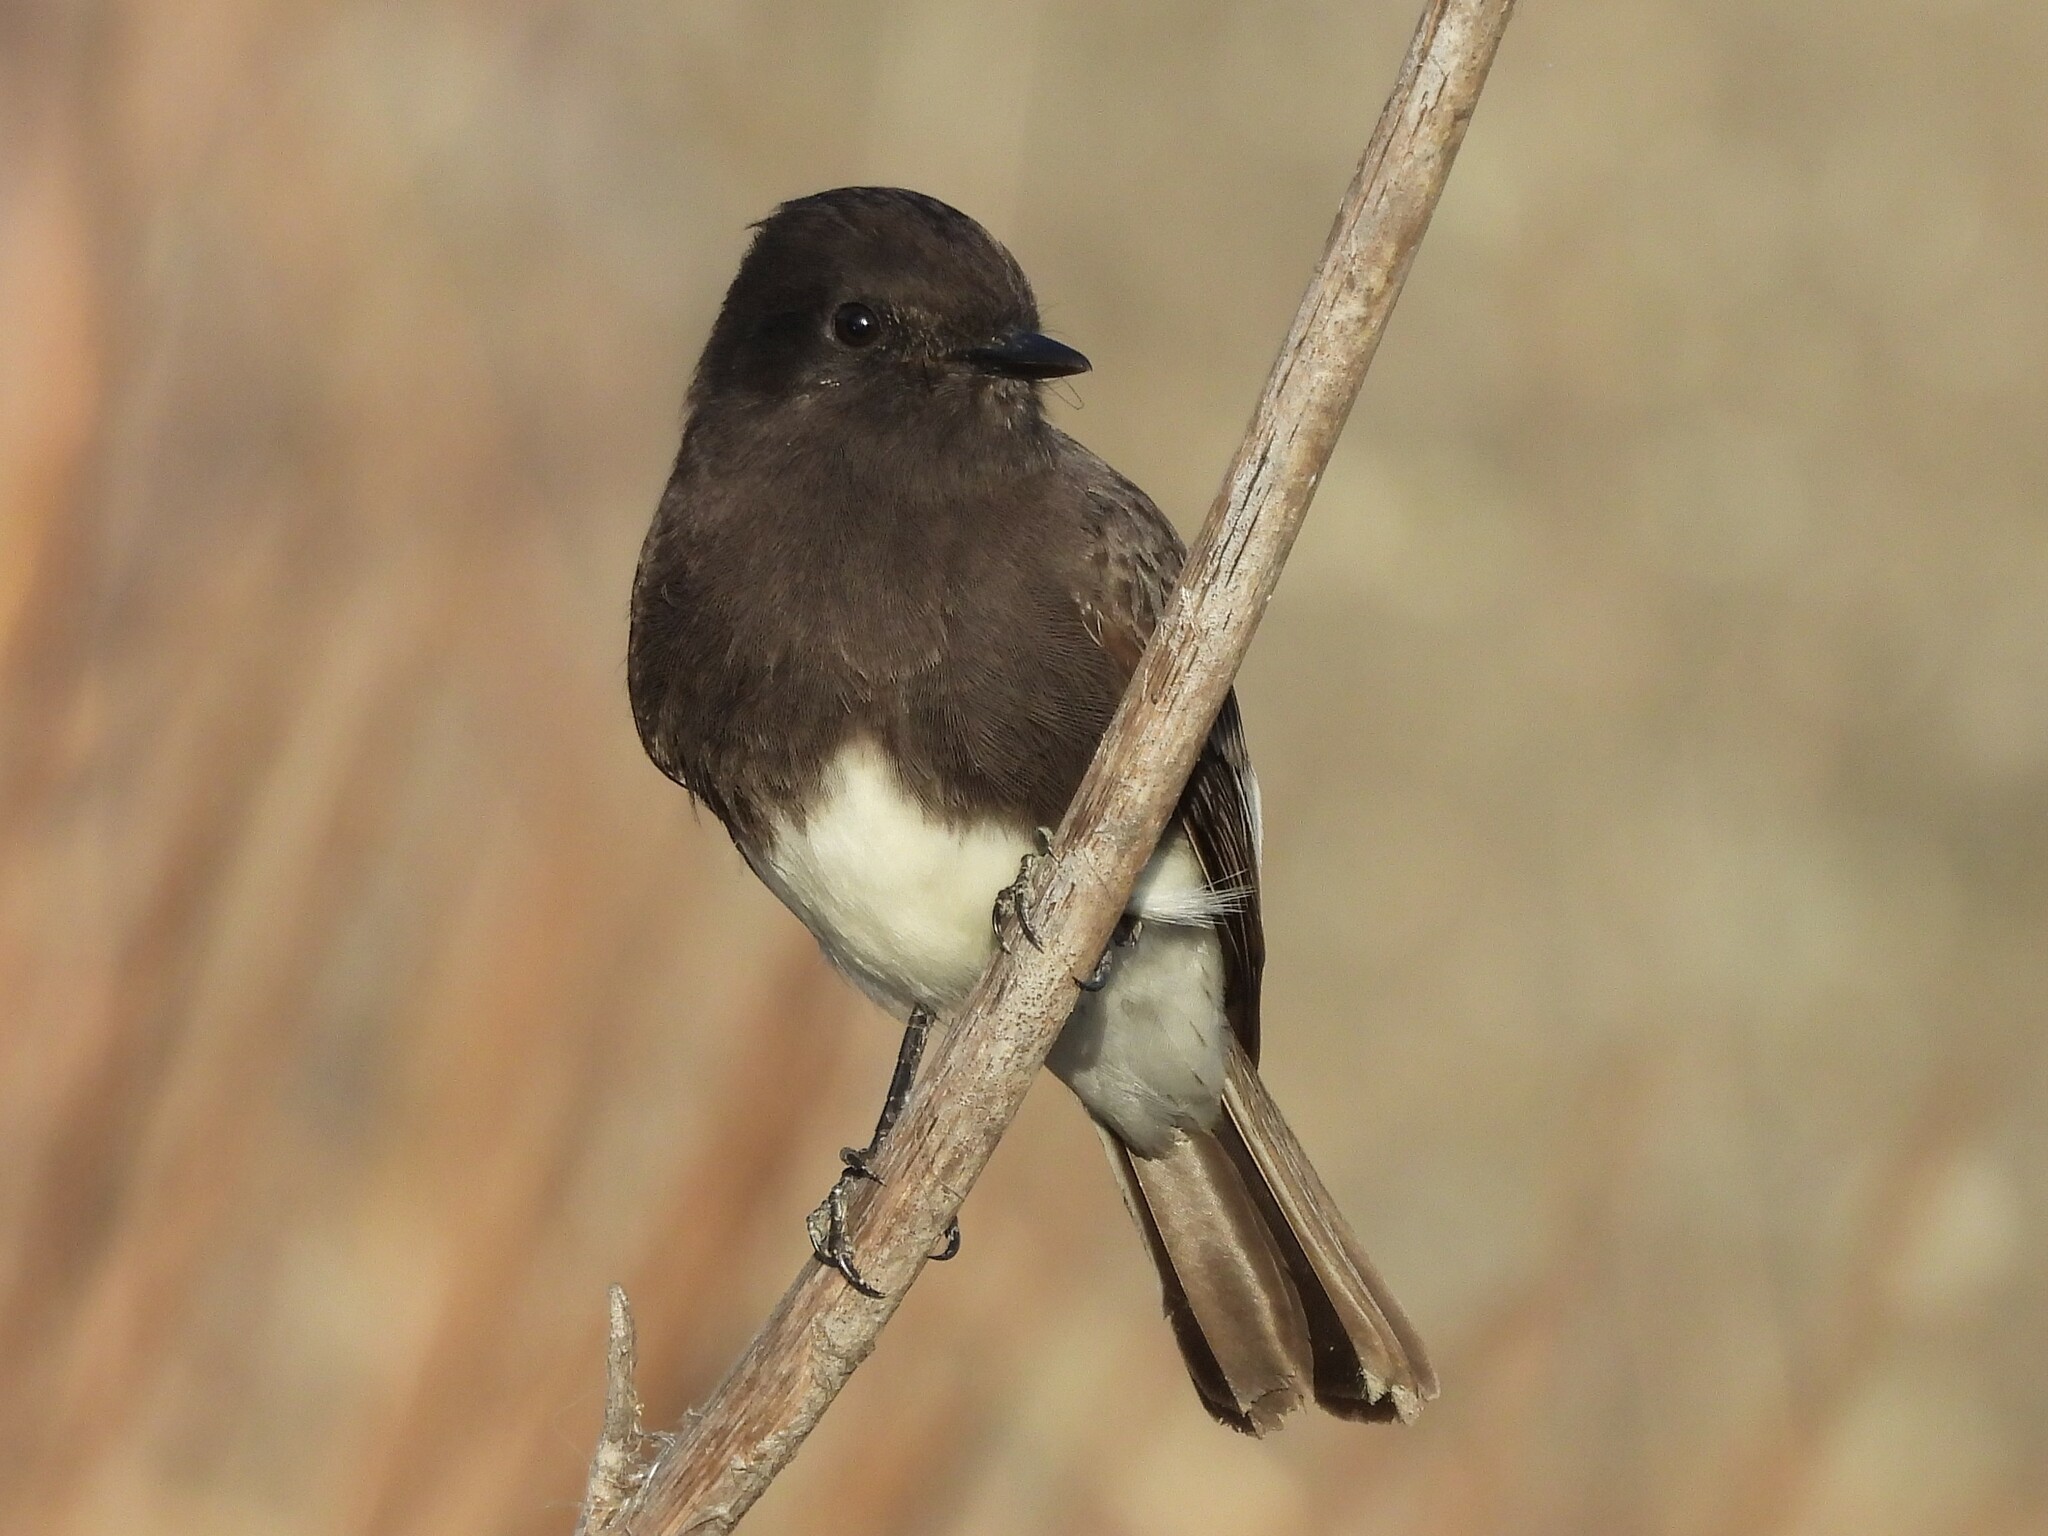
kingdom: Animalia
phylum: Chordata
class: Aves
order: Passeriformes
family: Tyrannidae
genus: Sayornis
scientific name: Sayornis nigricans
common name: Black phoebe
